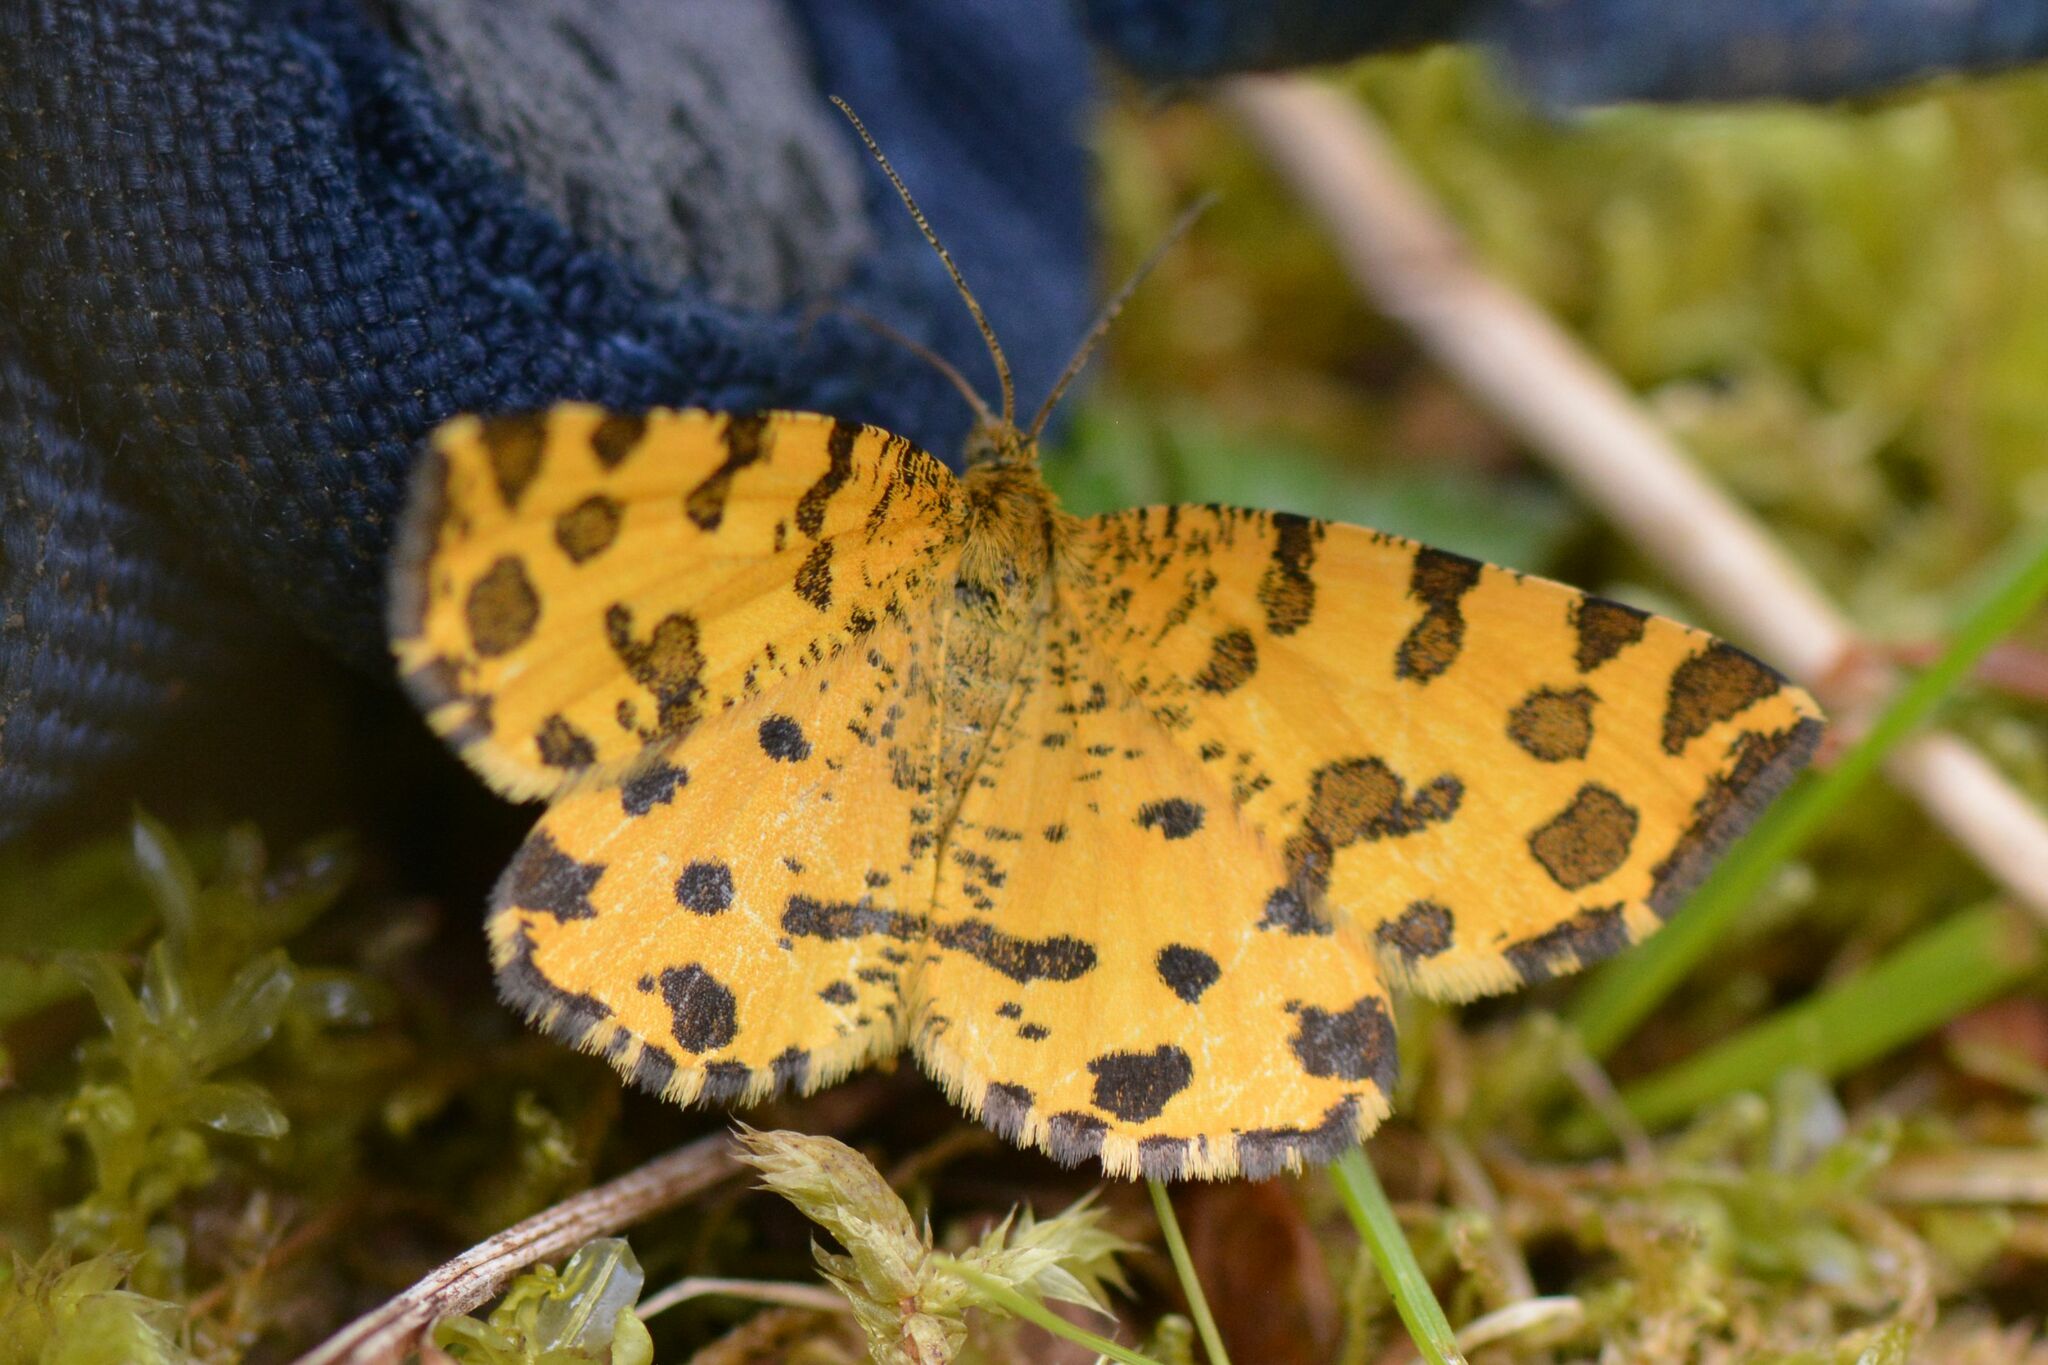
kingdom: Animalia
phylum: Arthropoda
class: Insecta
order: Lepidoptera
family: Geometridae
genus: Pseudopanthera
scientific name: Pseudopanthera macularia
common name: Speckled yellow
